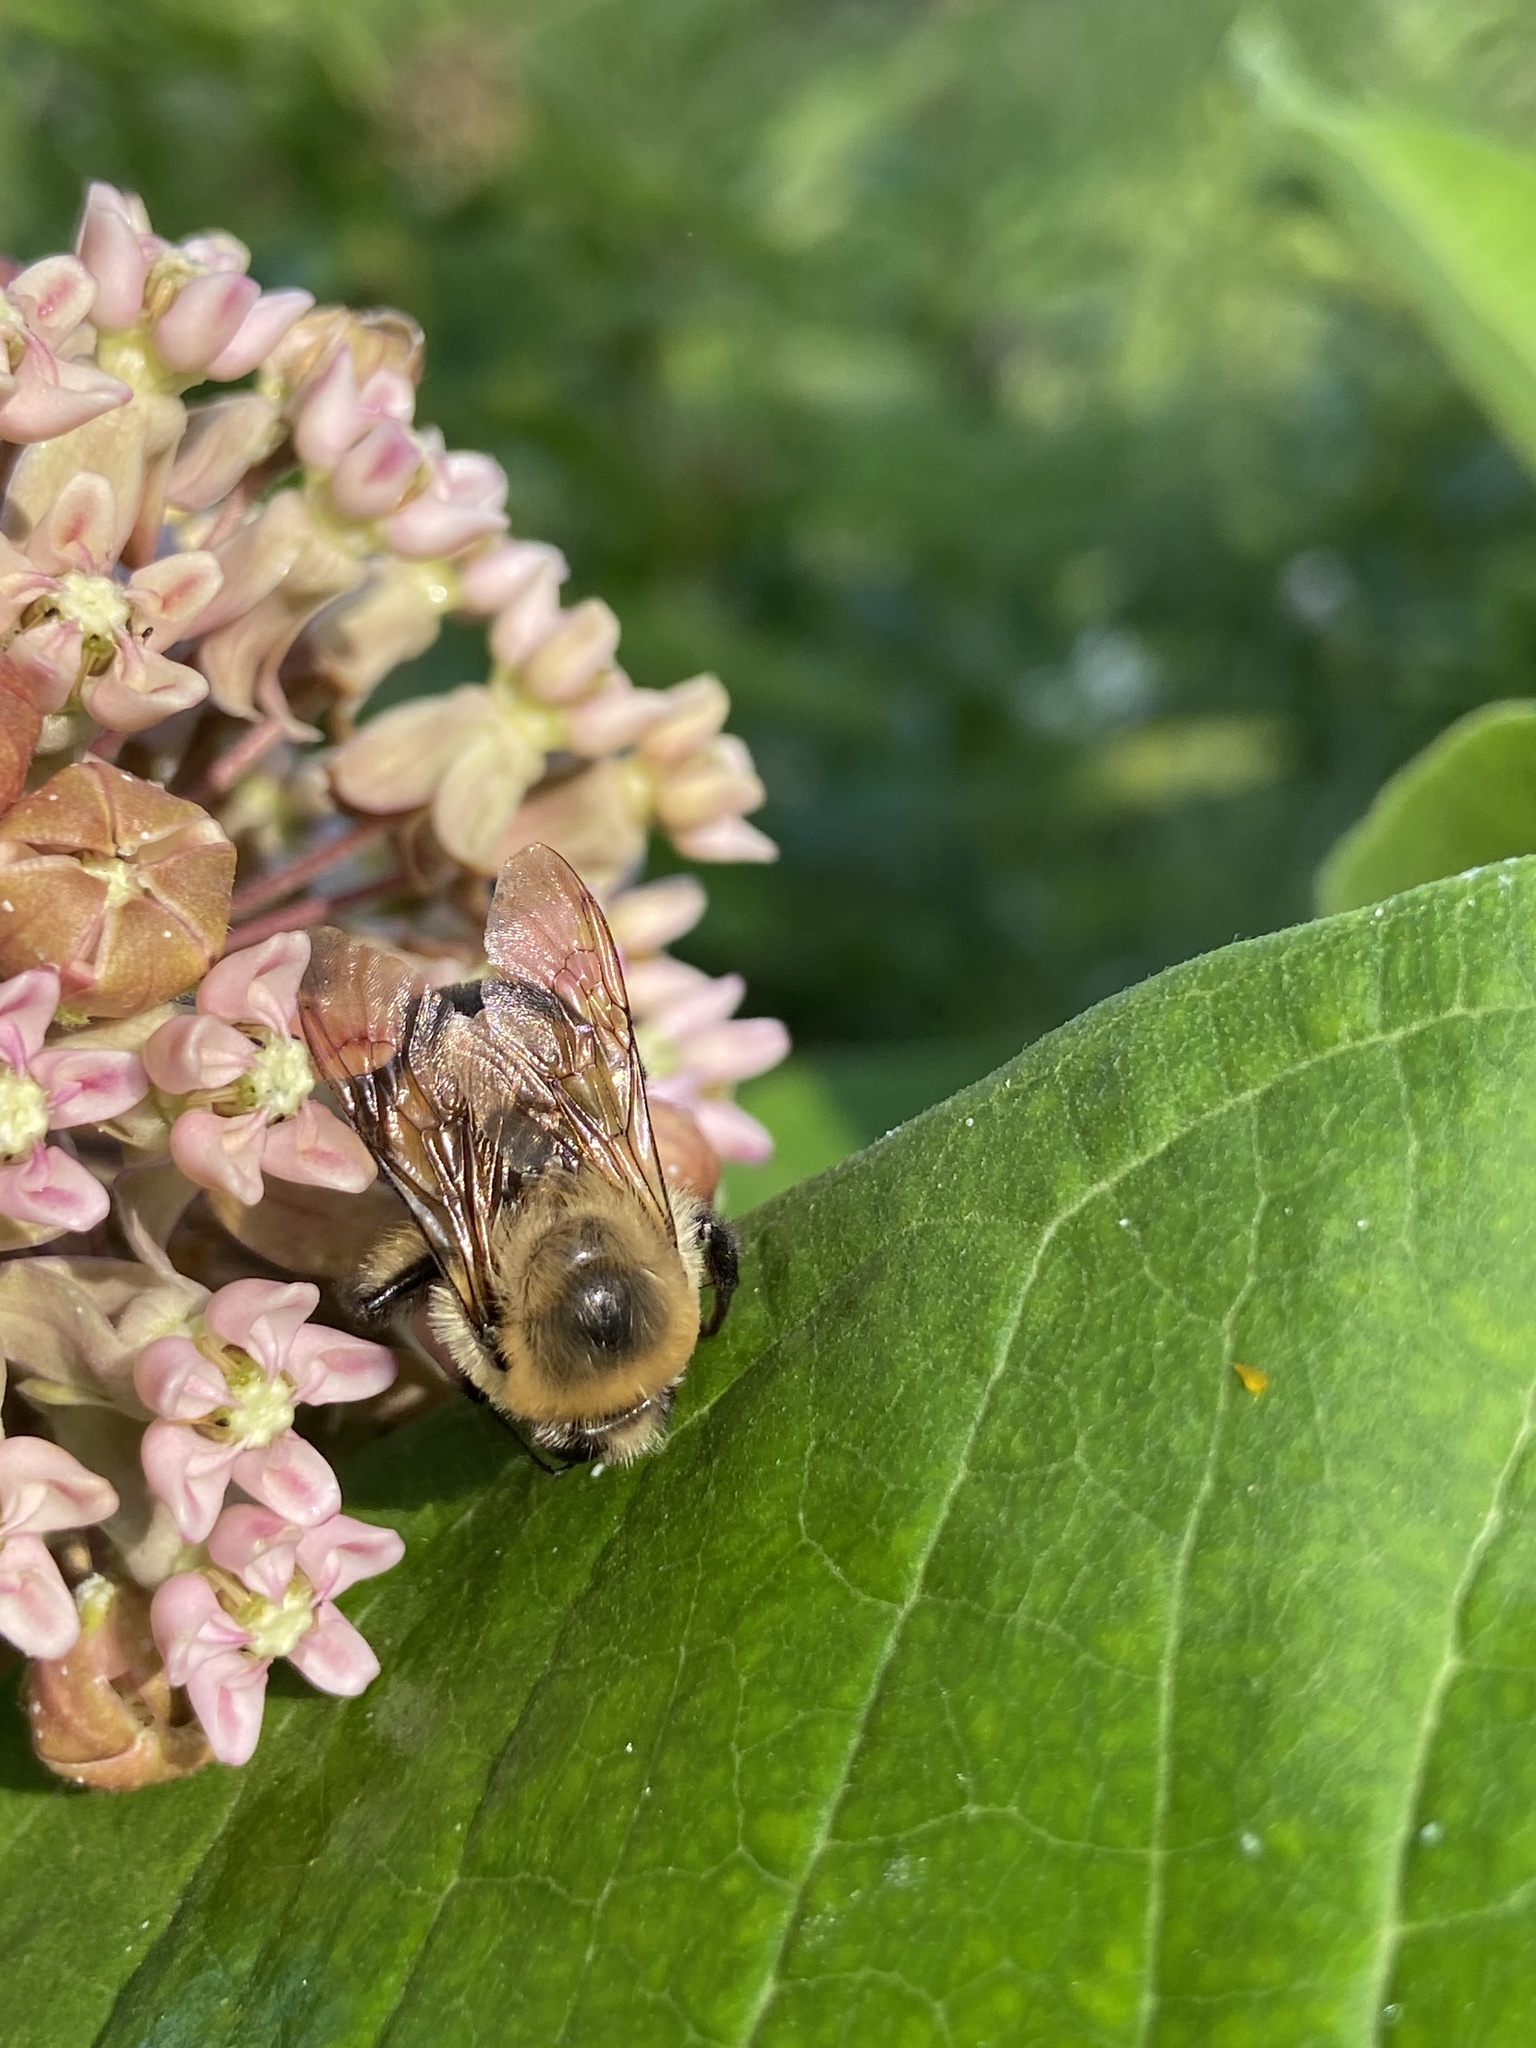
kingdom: Animalia
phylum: Arthropoda
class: Insecta
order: Hymenoptera
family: Apidae
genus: Bombus
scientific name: Bombus griseocollis
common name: Brown-belted bumble bee
